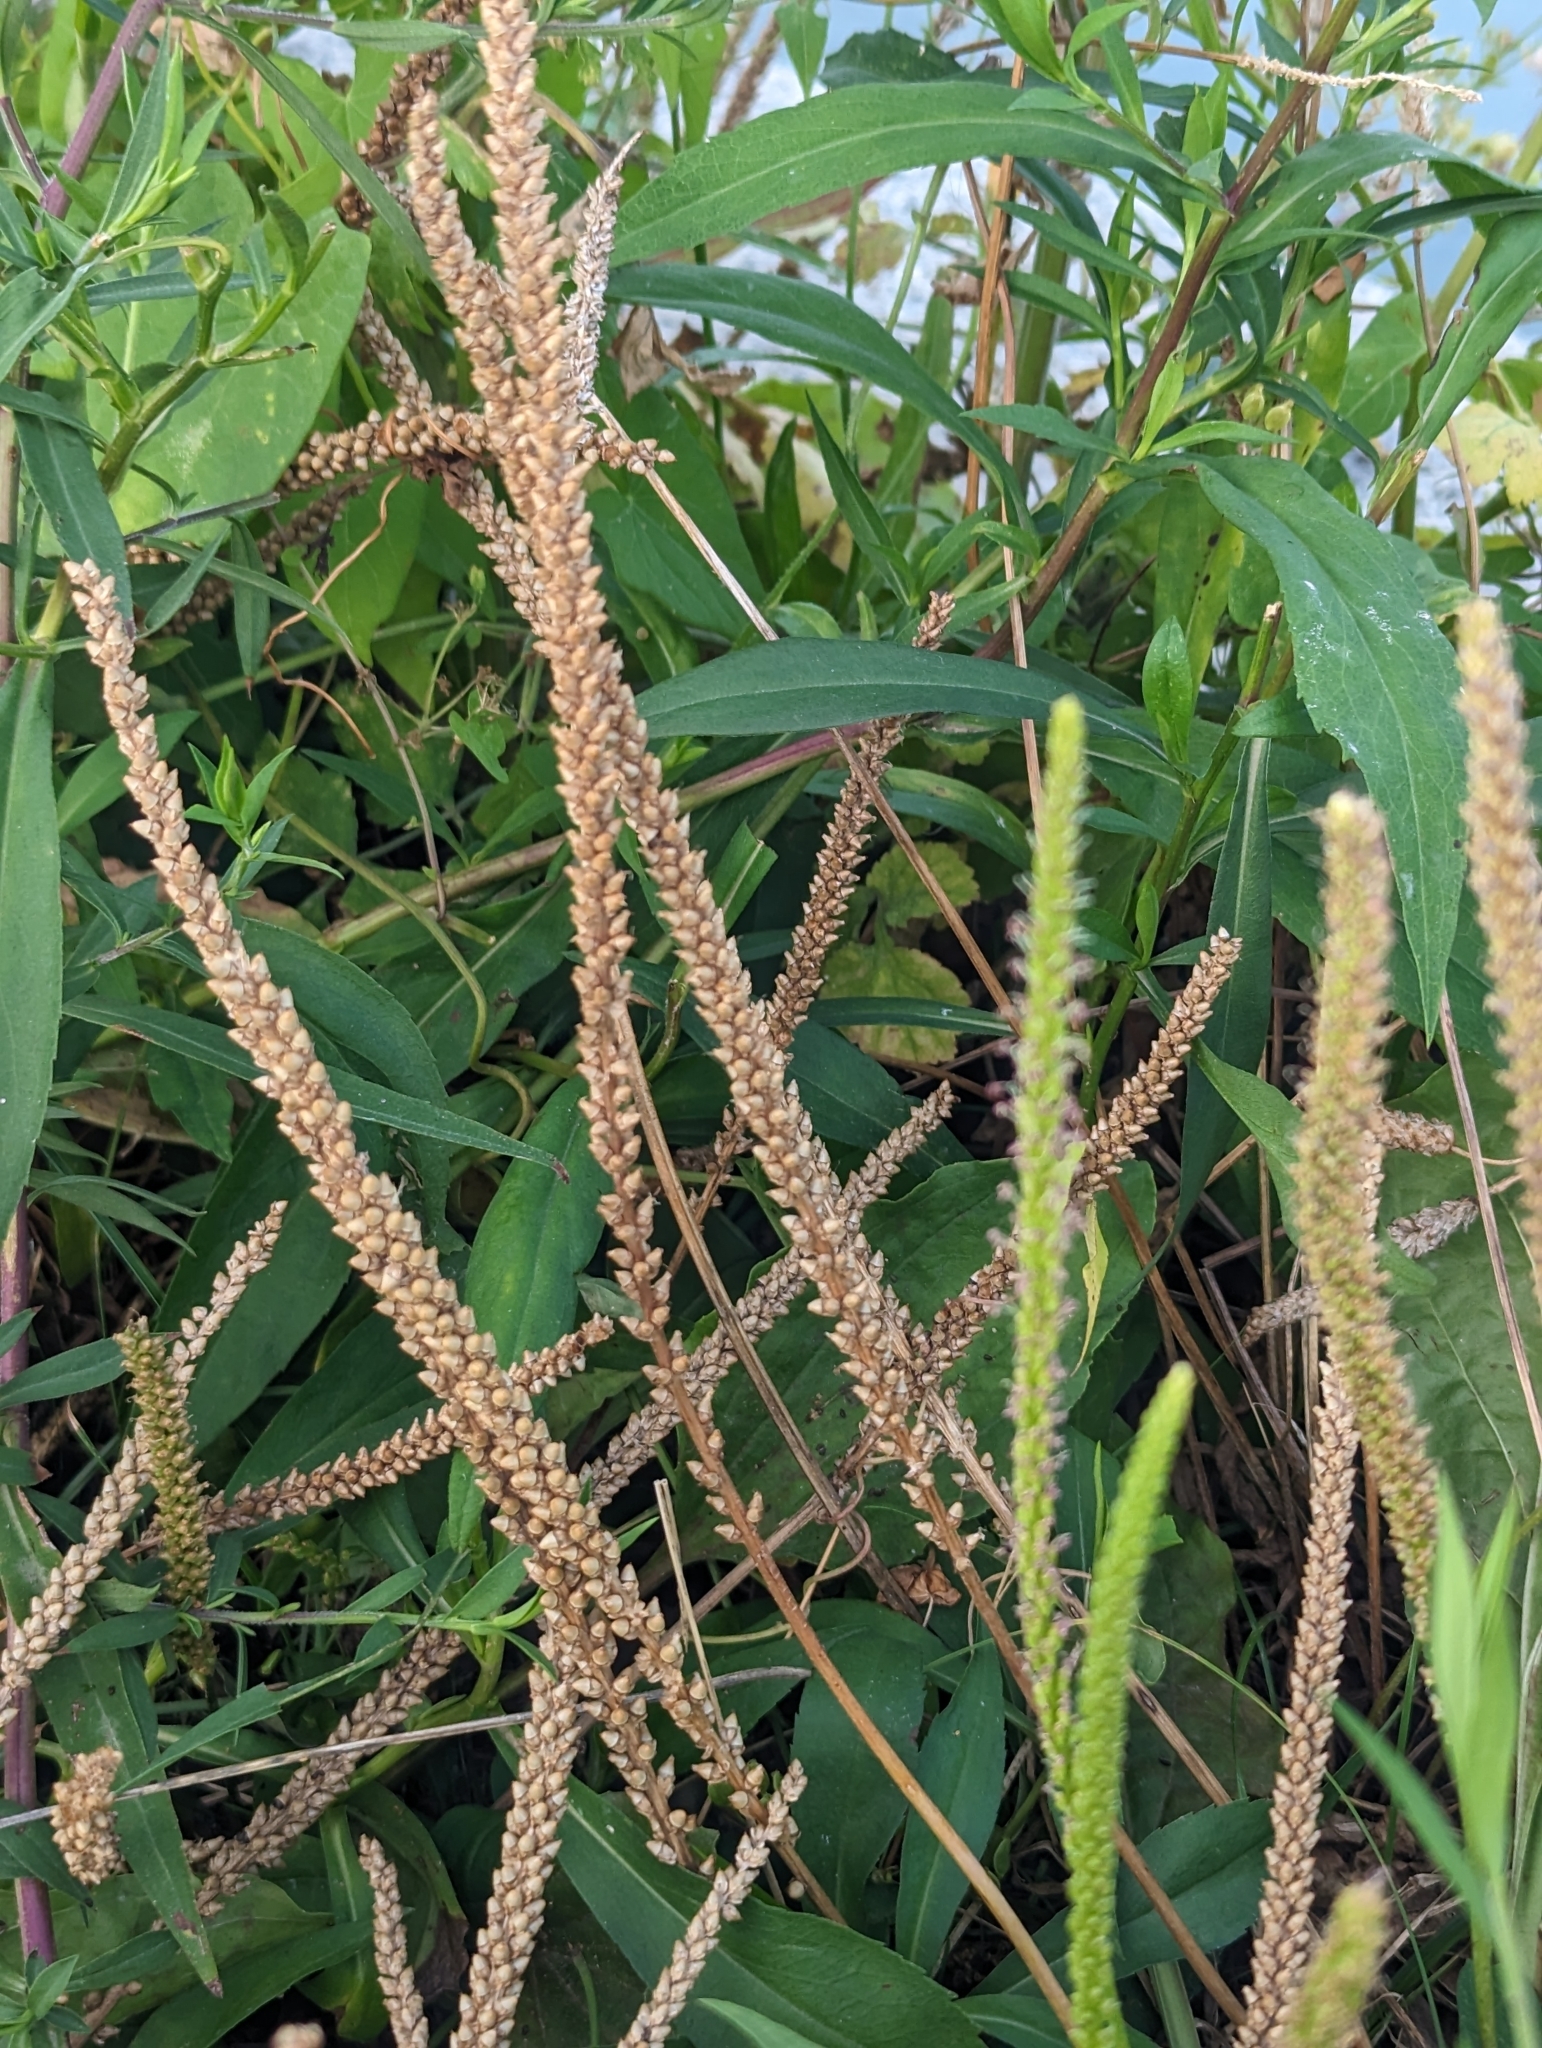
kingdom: Plantae
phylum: Tracheophyta
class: Magnoliopsida
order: Lamiales
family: Plantaginaceae
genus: Plantago
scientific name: Plantago major
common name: Common plantain
